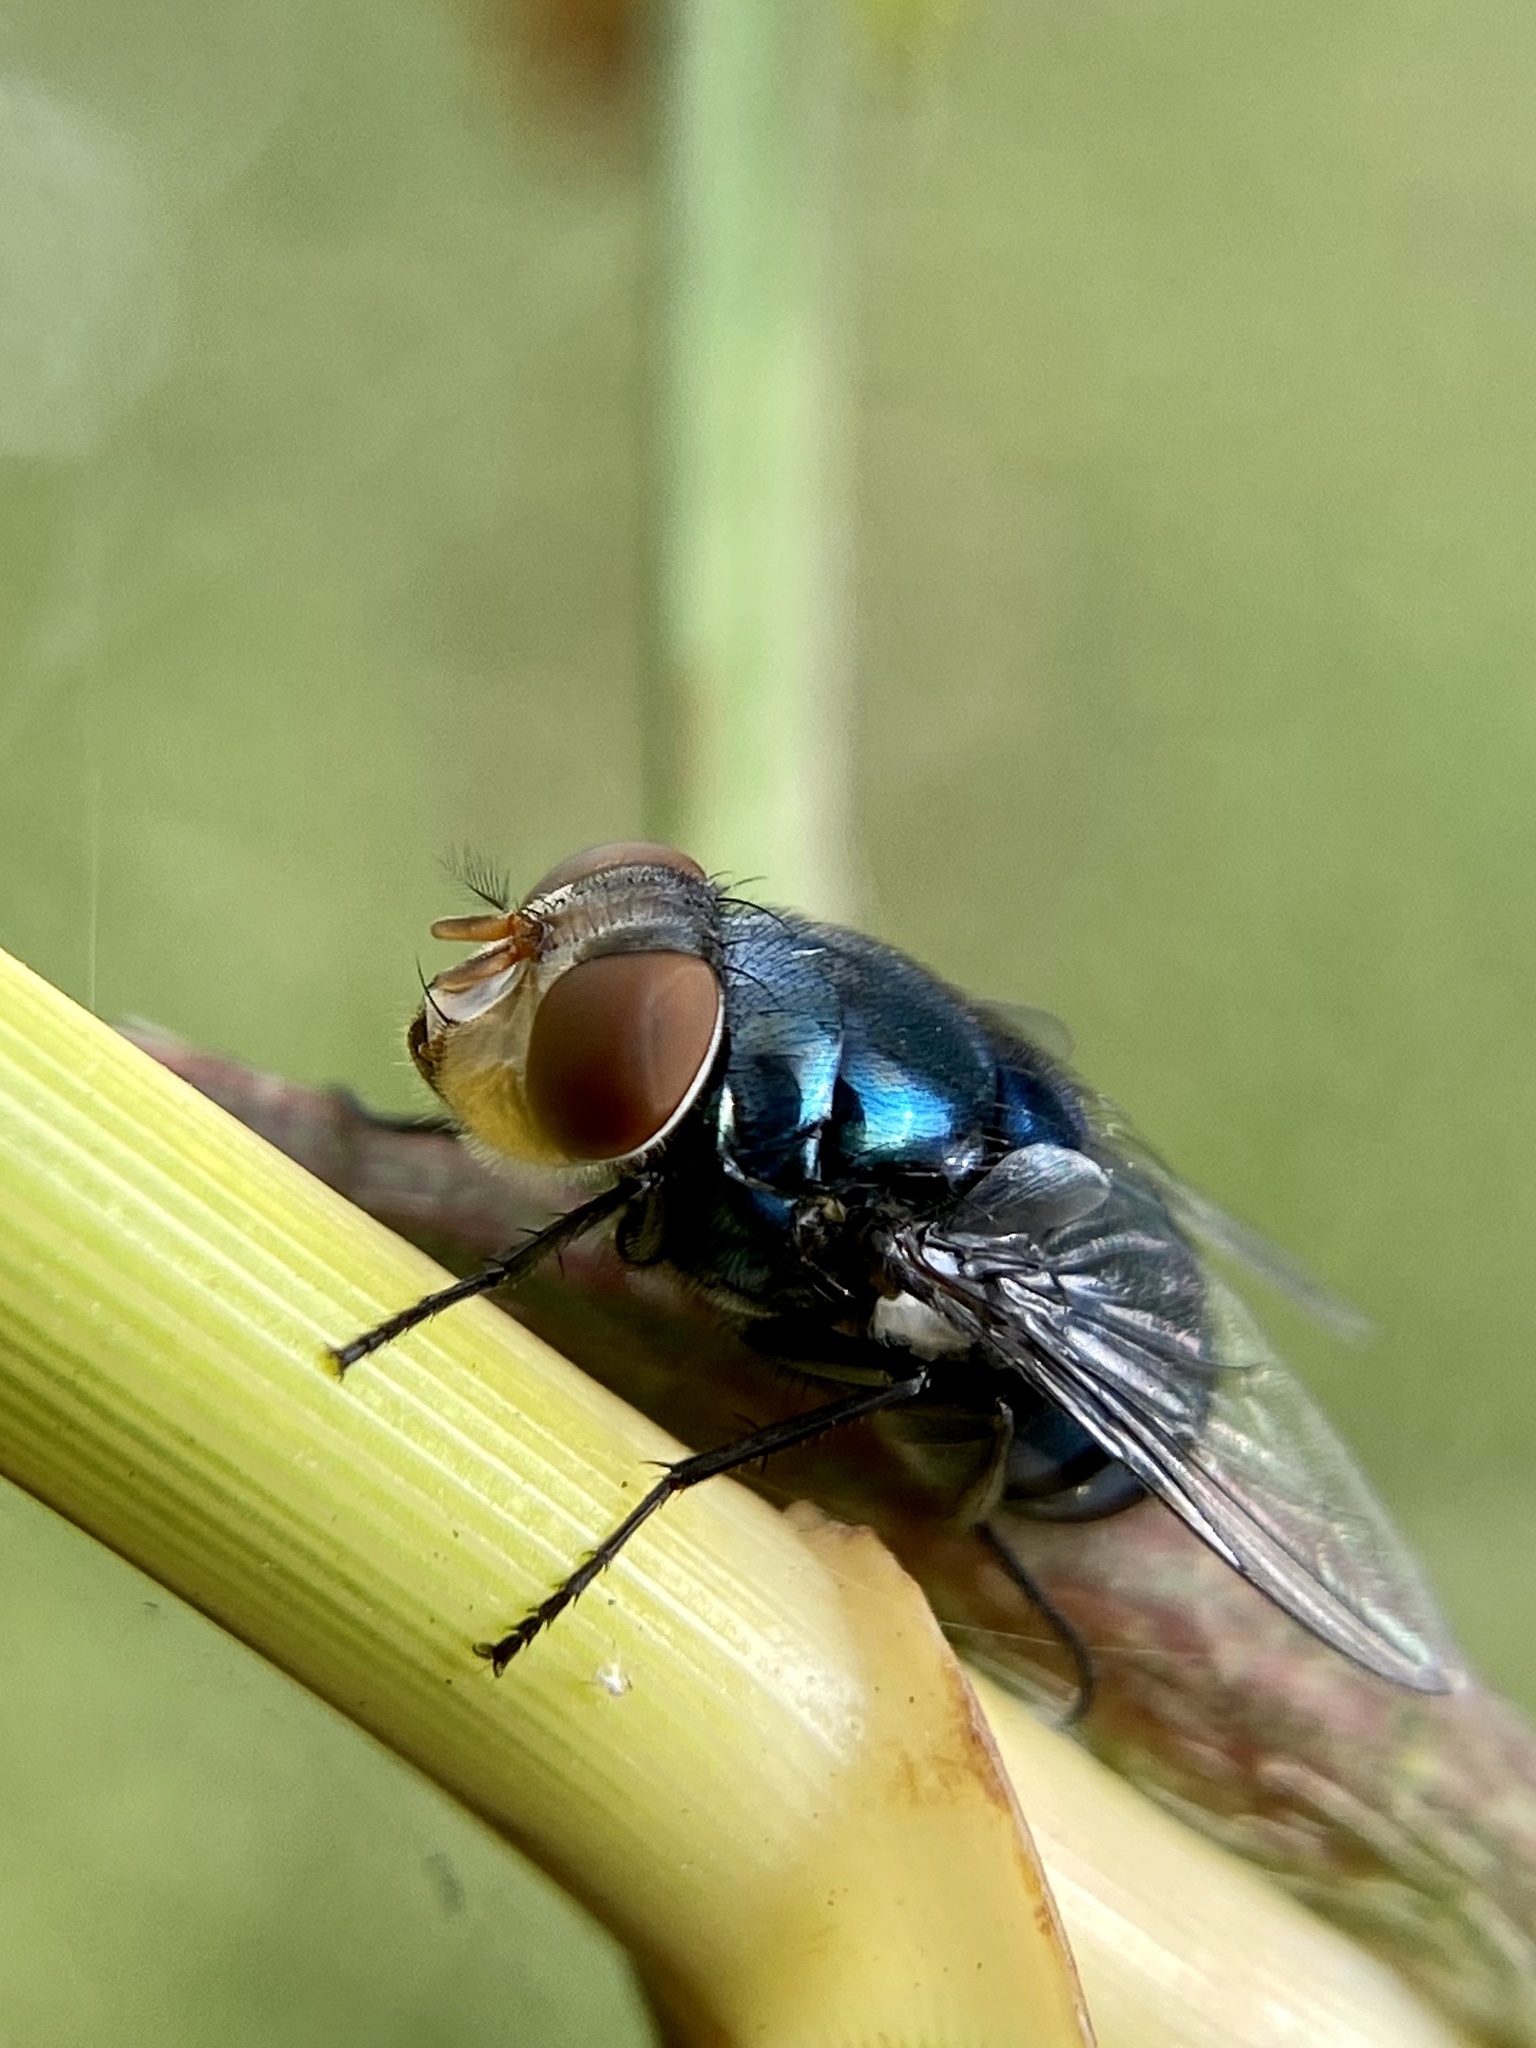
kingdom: Animalia
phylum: Arthropoda
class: Insecta
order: Diptera
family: Calliphoridae
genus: Chrysomya
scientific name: Chrysomya megacephala
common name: Blow fly
